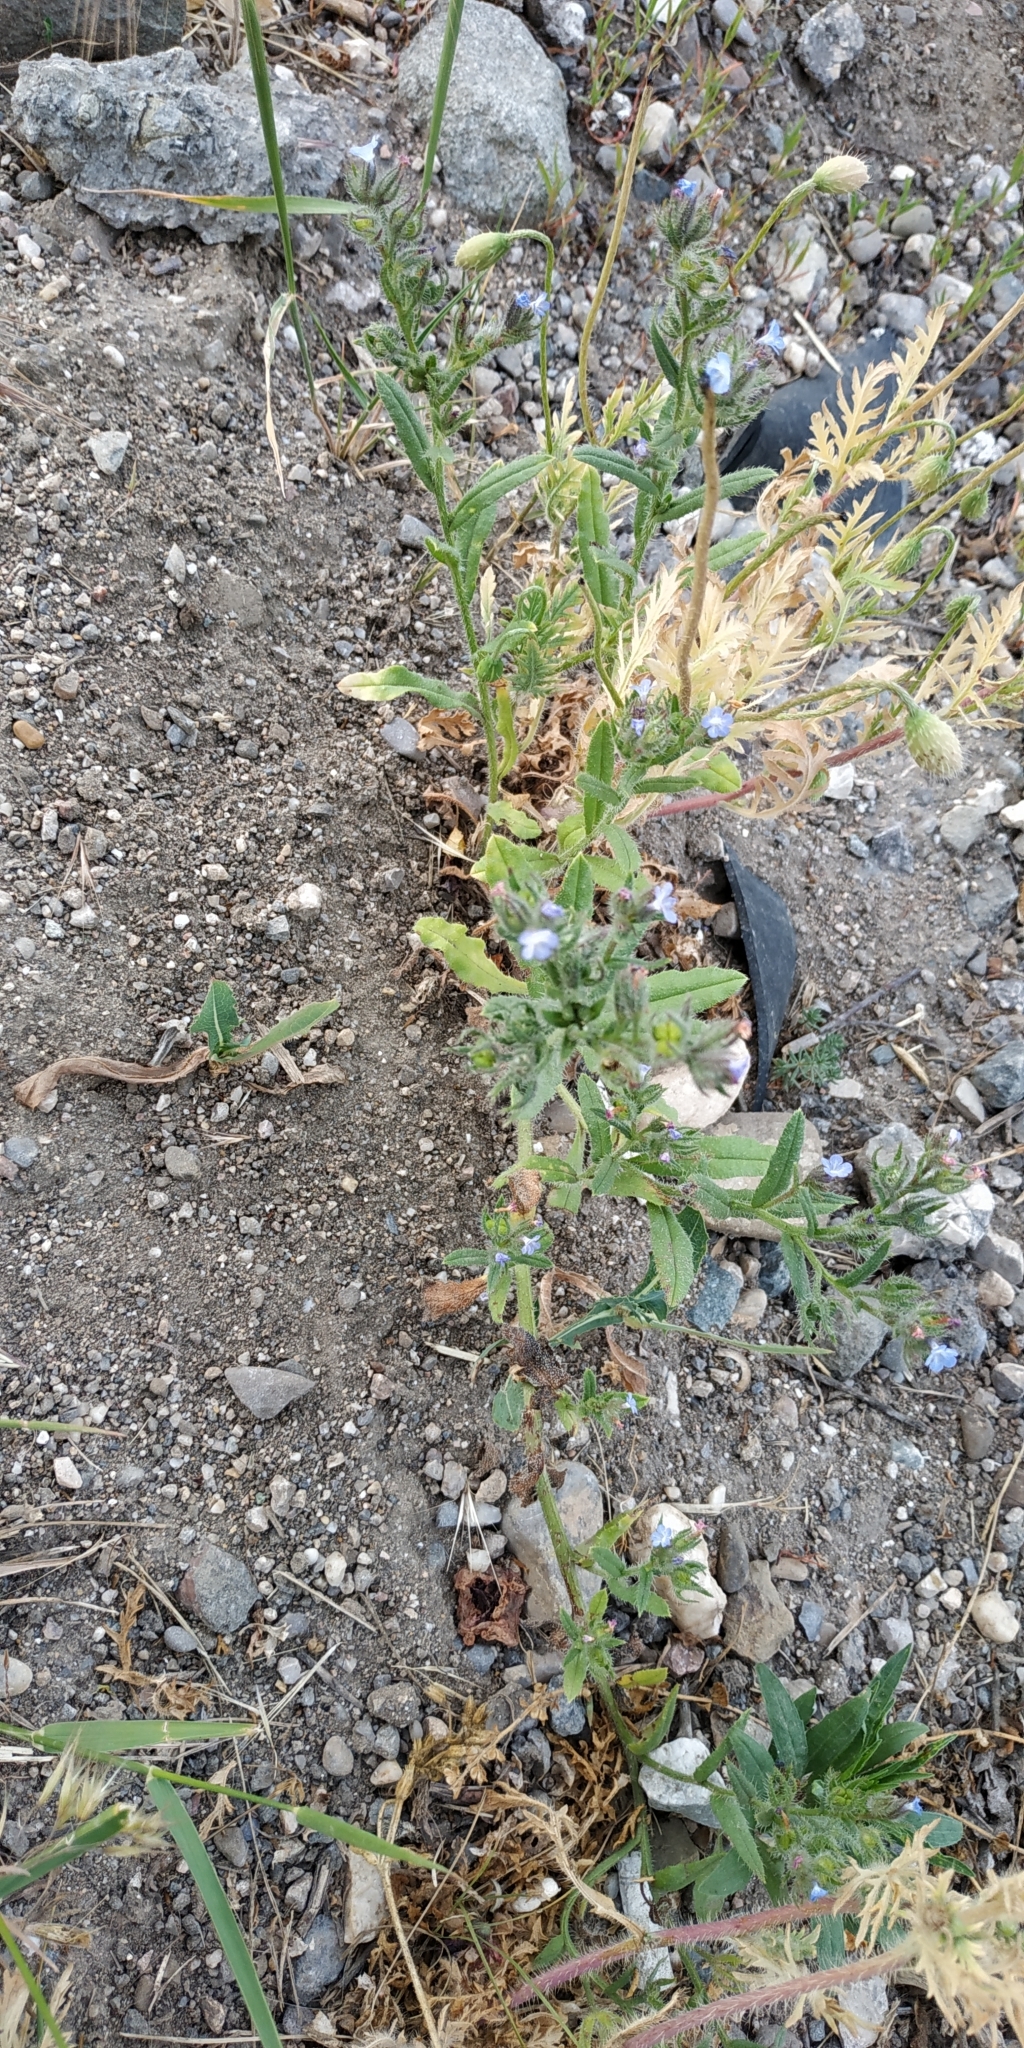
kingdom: Plantae
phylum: Tracheophyta
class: Magnoliopsida
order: Boraginales
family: Boraginaceae
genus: Lycopsis
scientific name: Lycopsis arvensis
